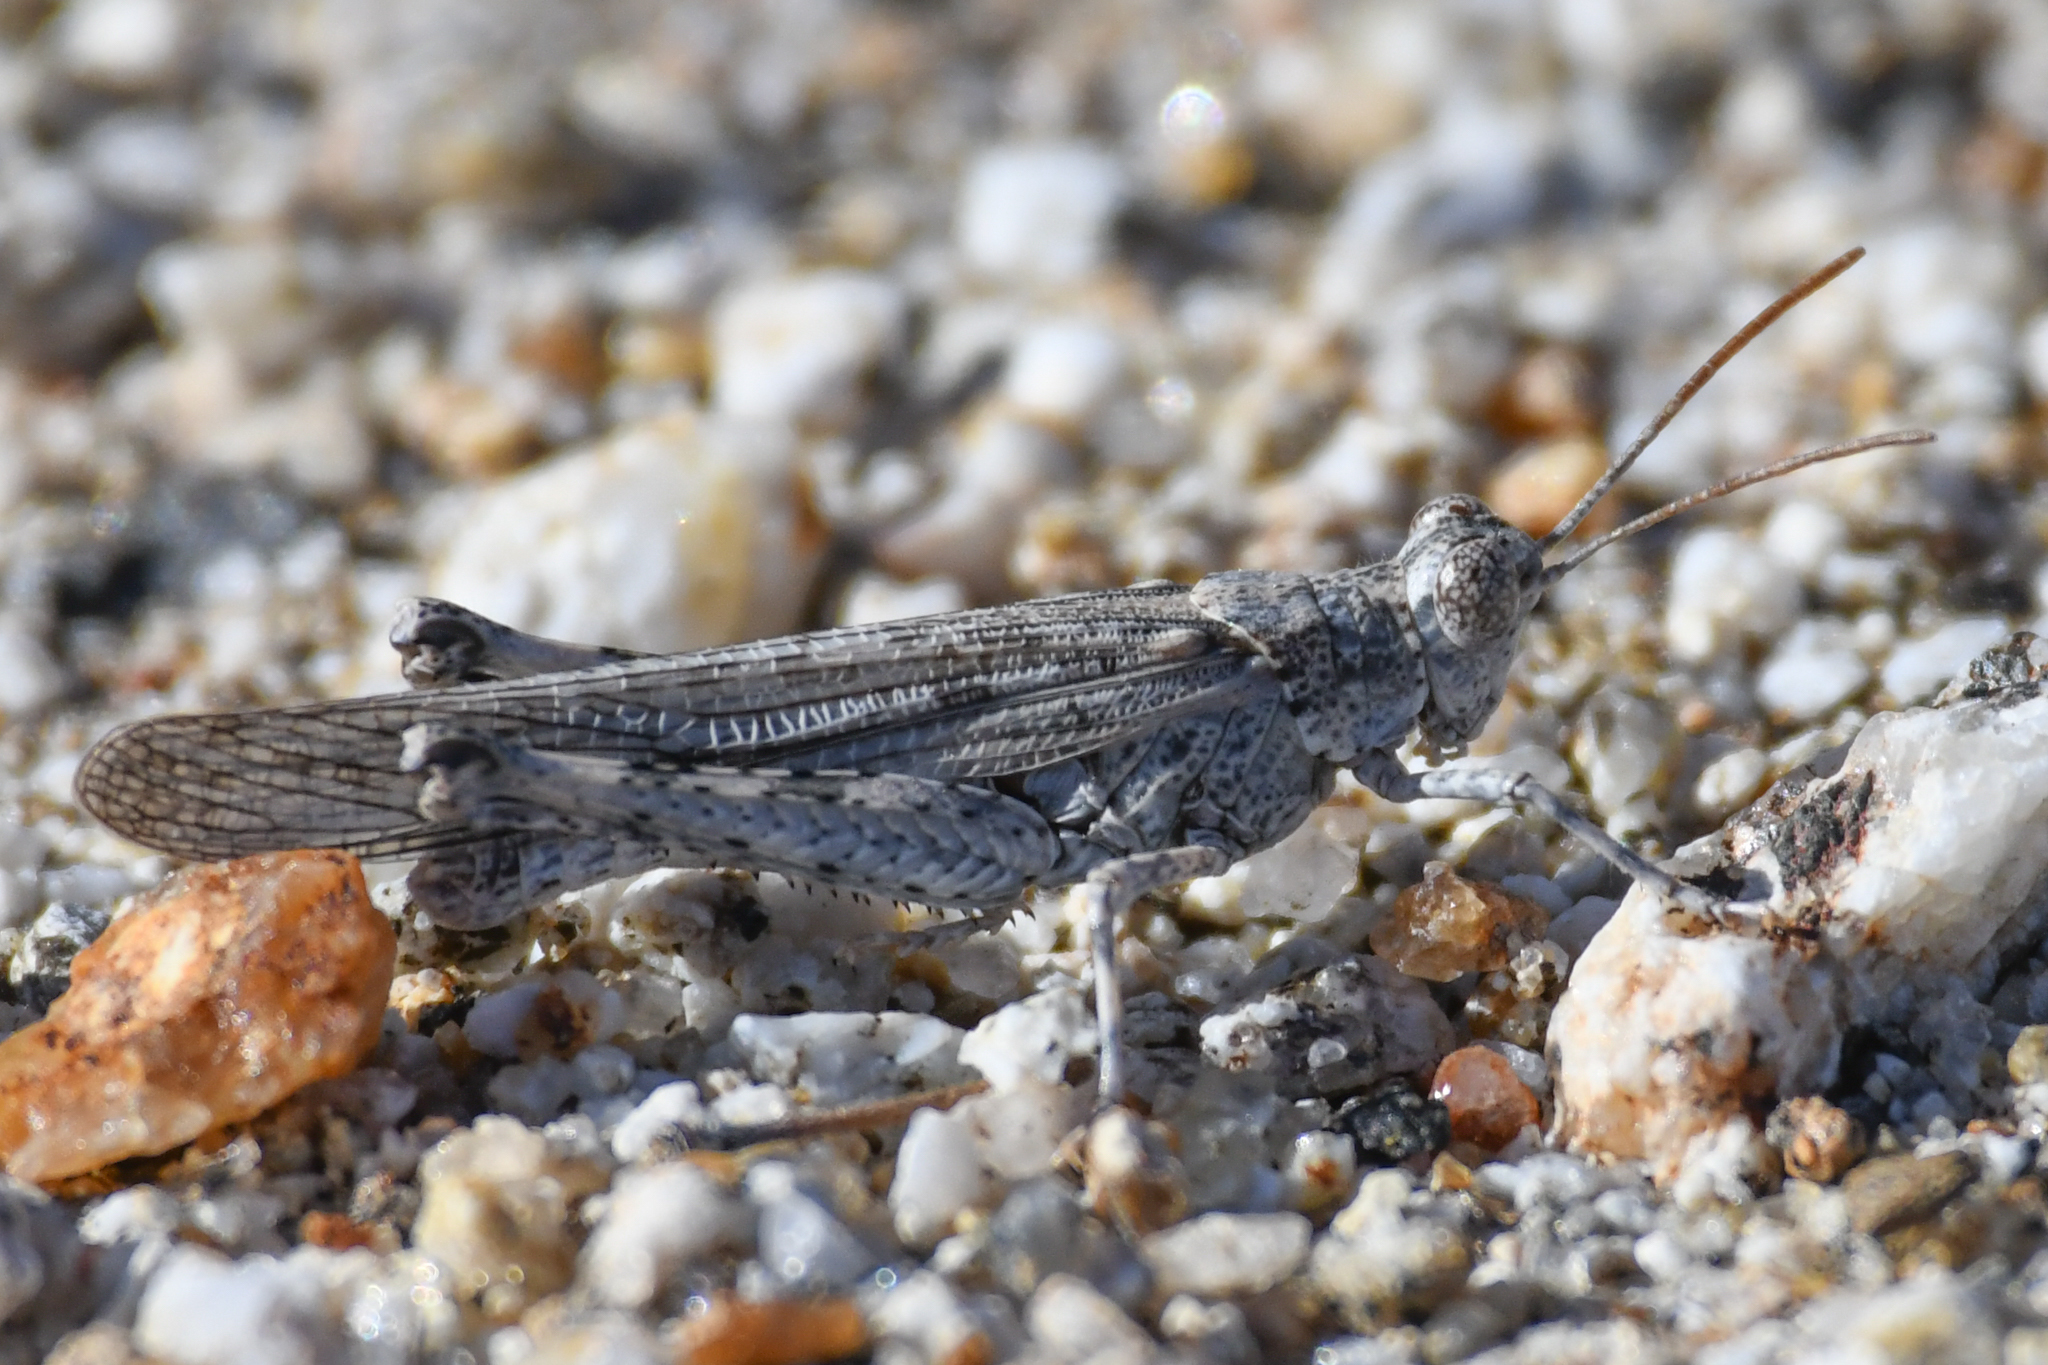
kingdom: Animalia
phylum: Arthropoda
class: Insecta
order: Orthoptera
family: Acrididae
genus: Anconia
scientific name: Anconia integra
